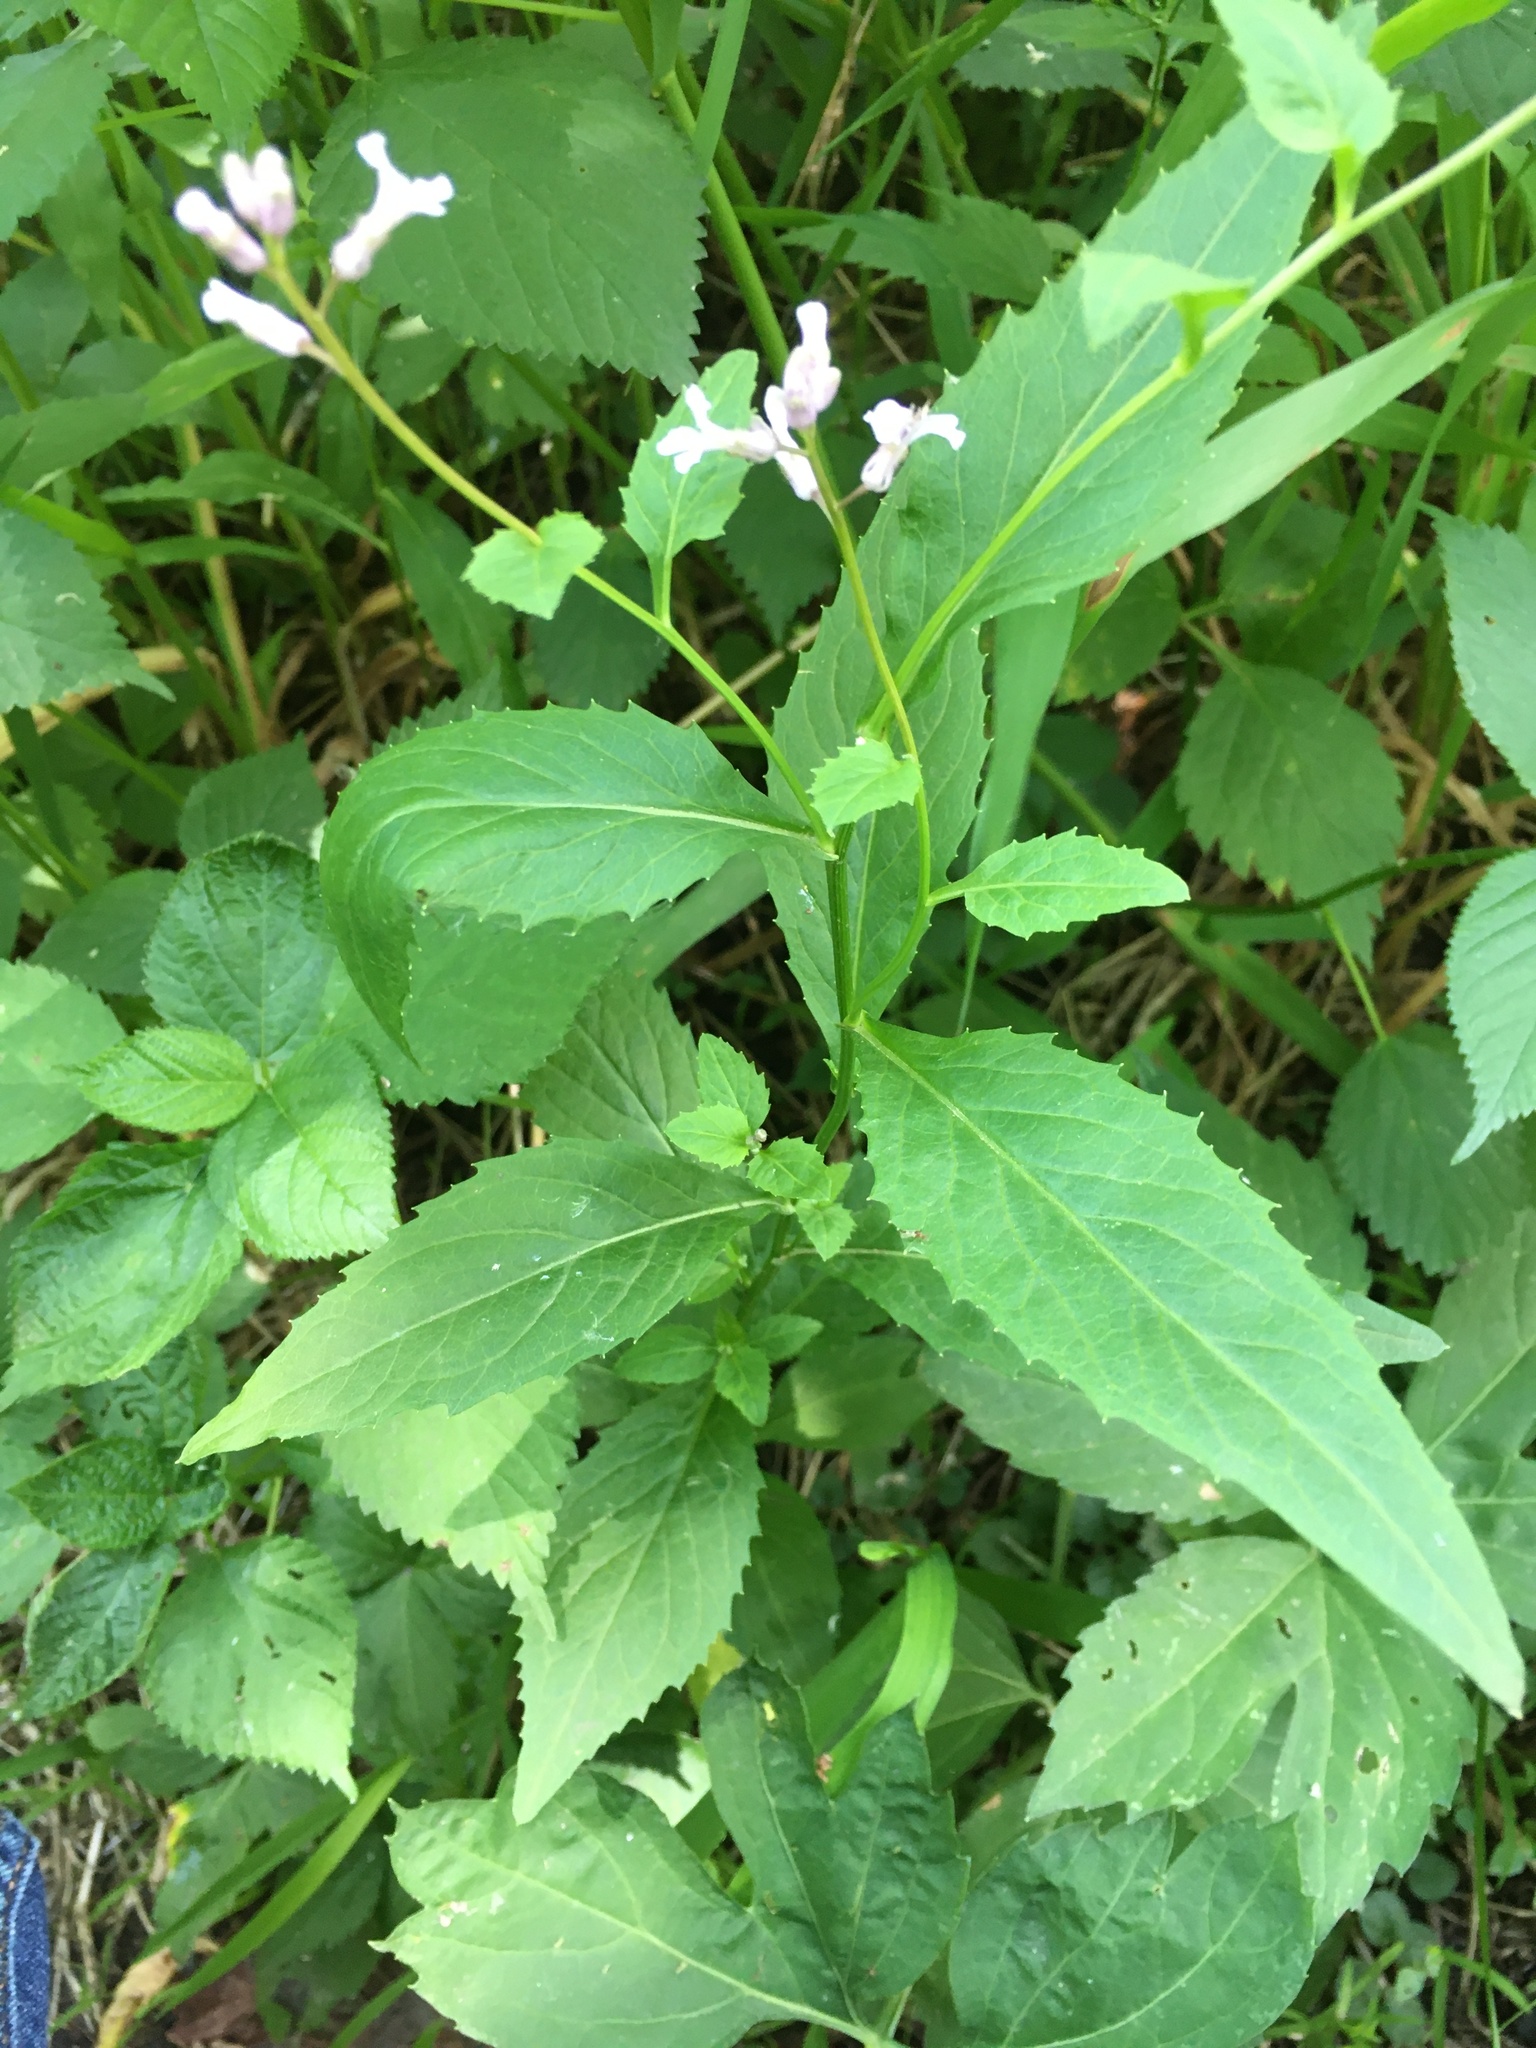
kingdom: Plantae
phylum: Tracheophyta
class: Magnoliopsida
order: Brassicales
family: Brassicaceae
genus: Iodanthus
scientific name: Iodanthus pinnatifidus
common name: Violet rocket
